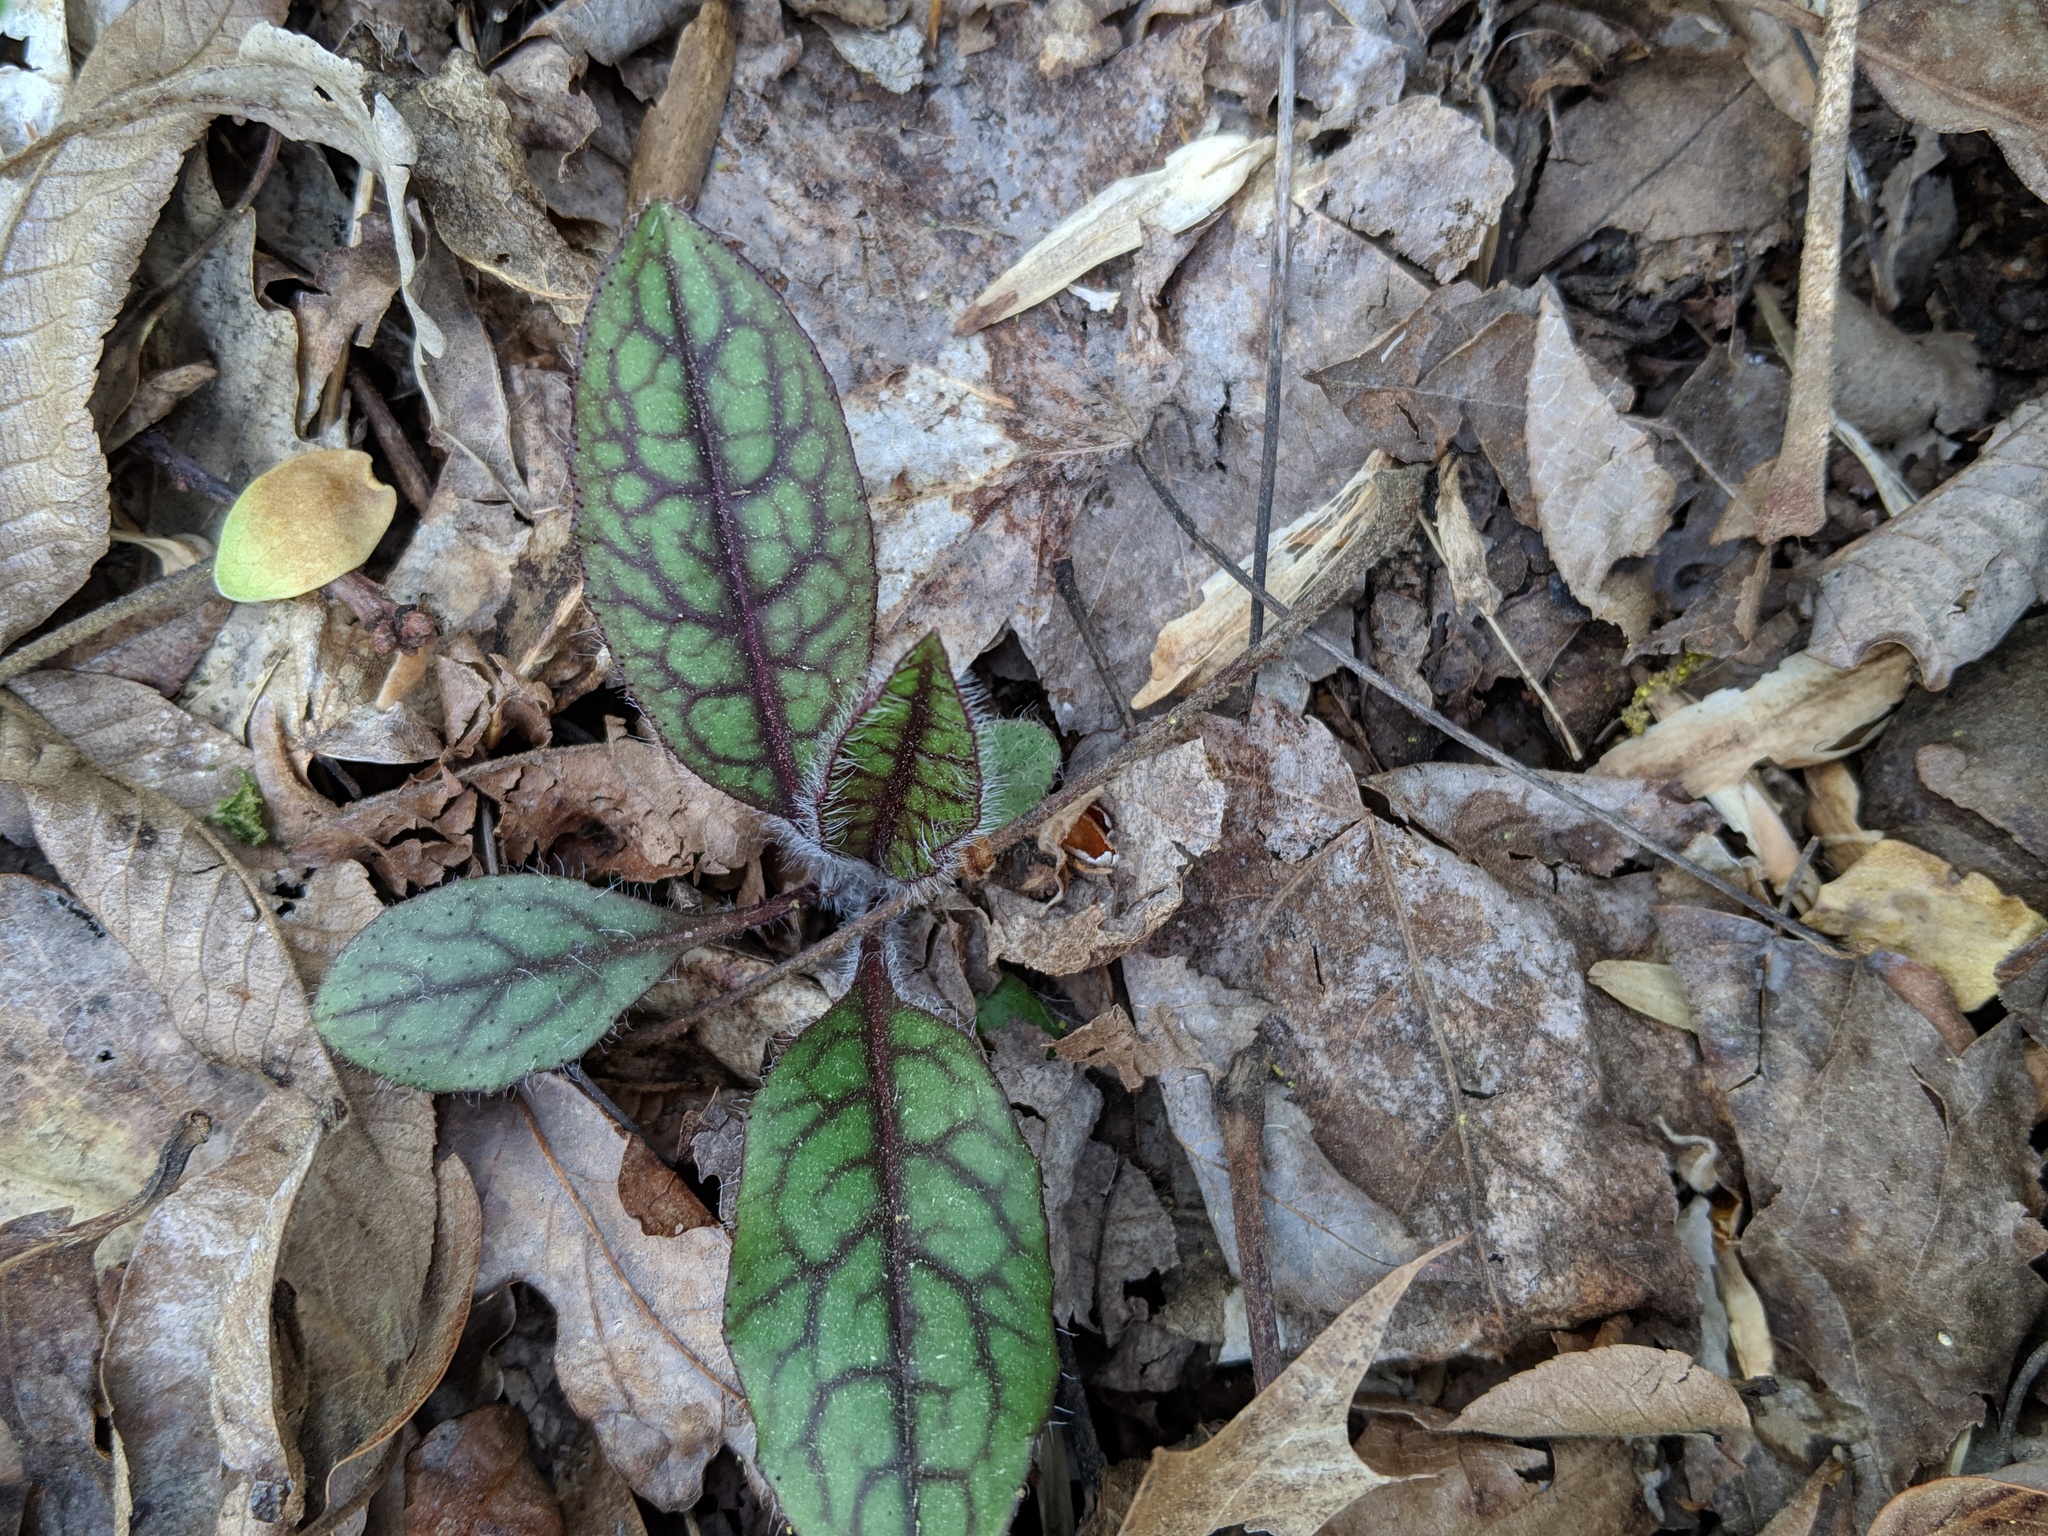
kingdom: Plantae
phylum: Tracheophyta
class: Magnoliopsida
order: Asterales
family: Asteraceae
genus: Hieracium
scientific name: Hieracium venosum
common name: Rattlesnake hawkweed
